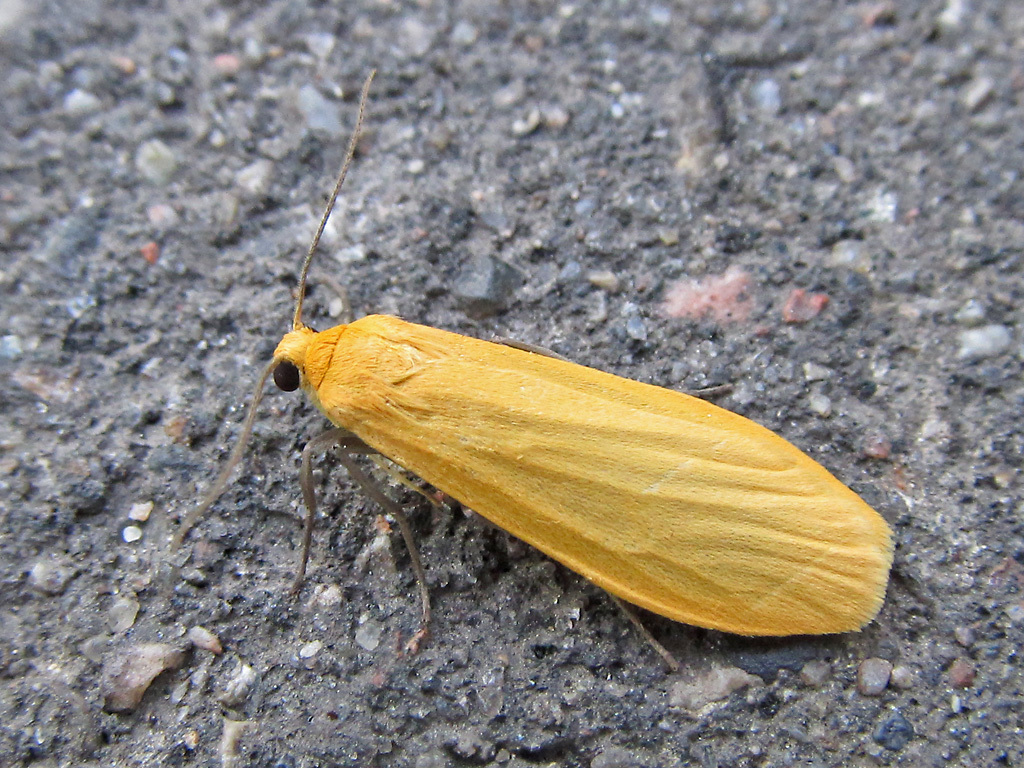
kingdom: Animalia
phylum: Arthropoda
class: Insecta
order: Lepidoptera
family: Erebidae
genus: Wittia
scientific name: Wittia sororcula
